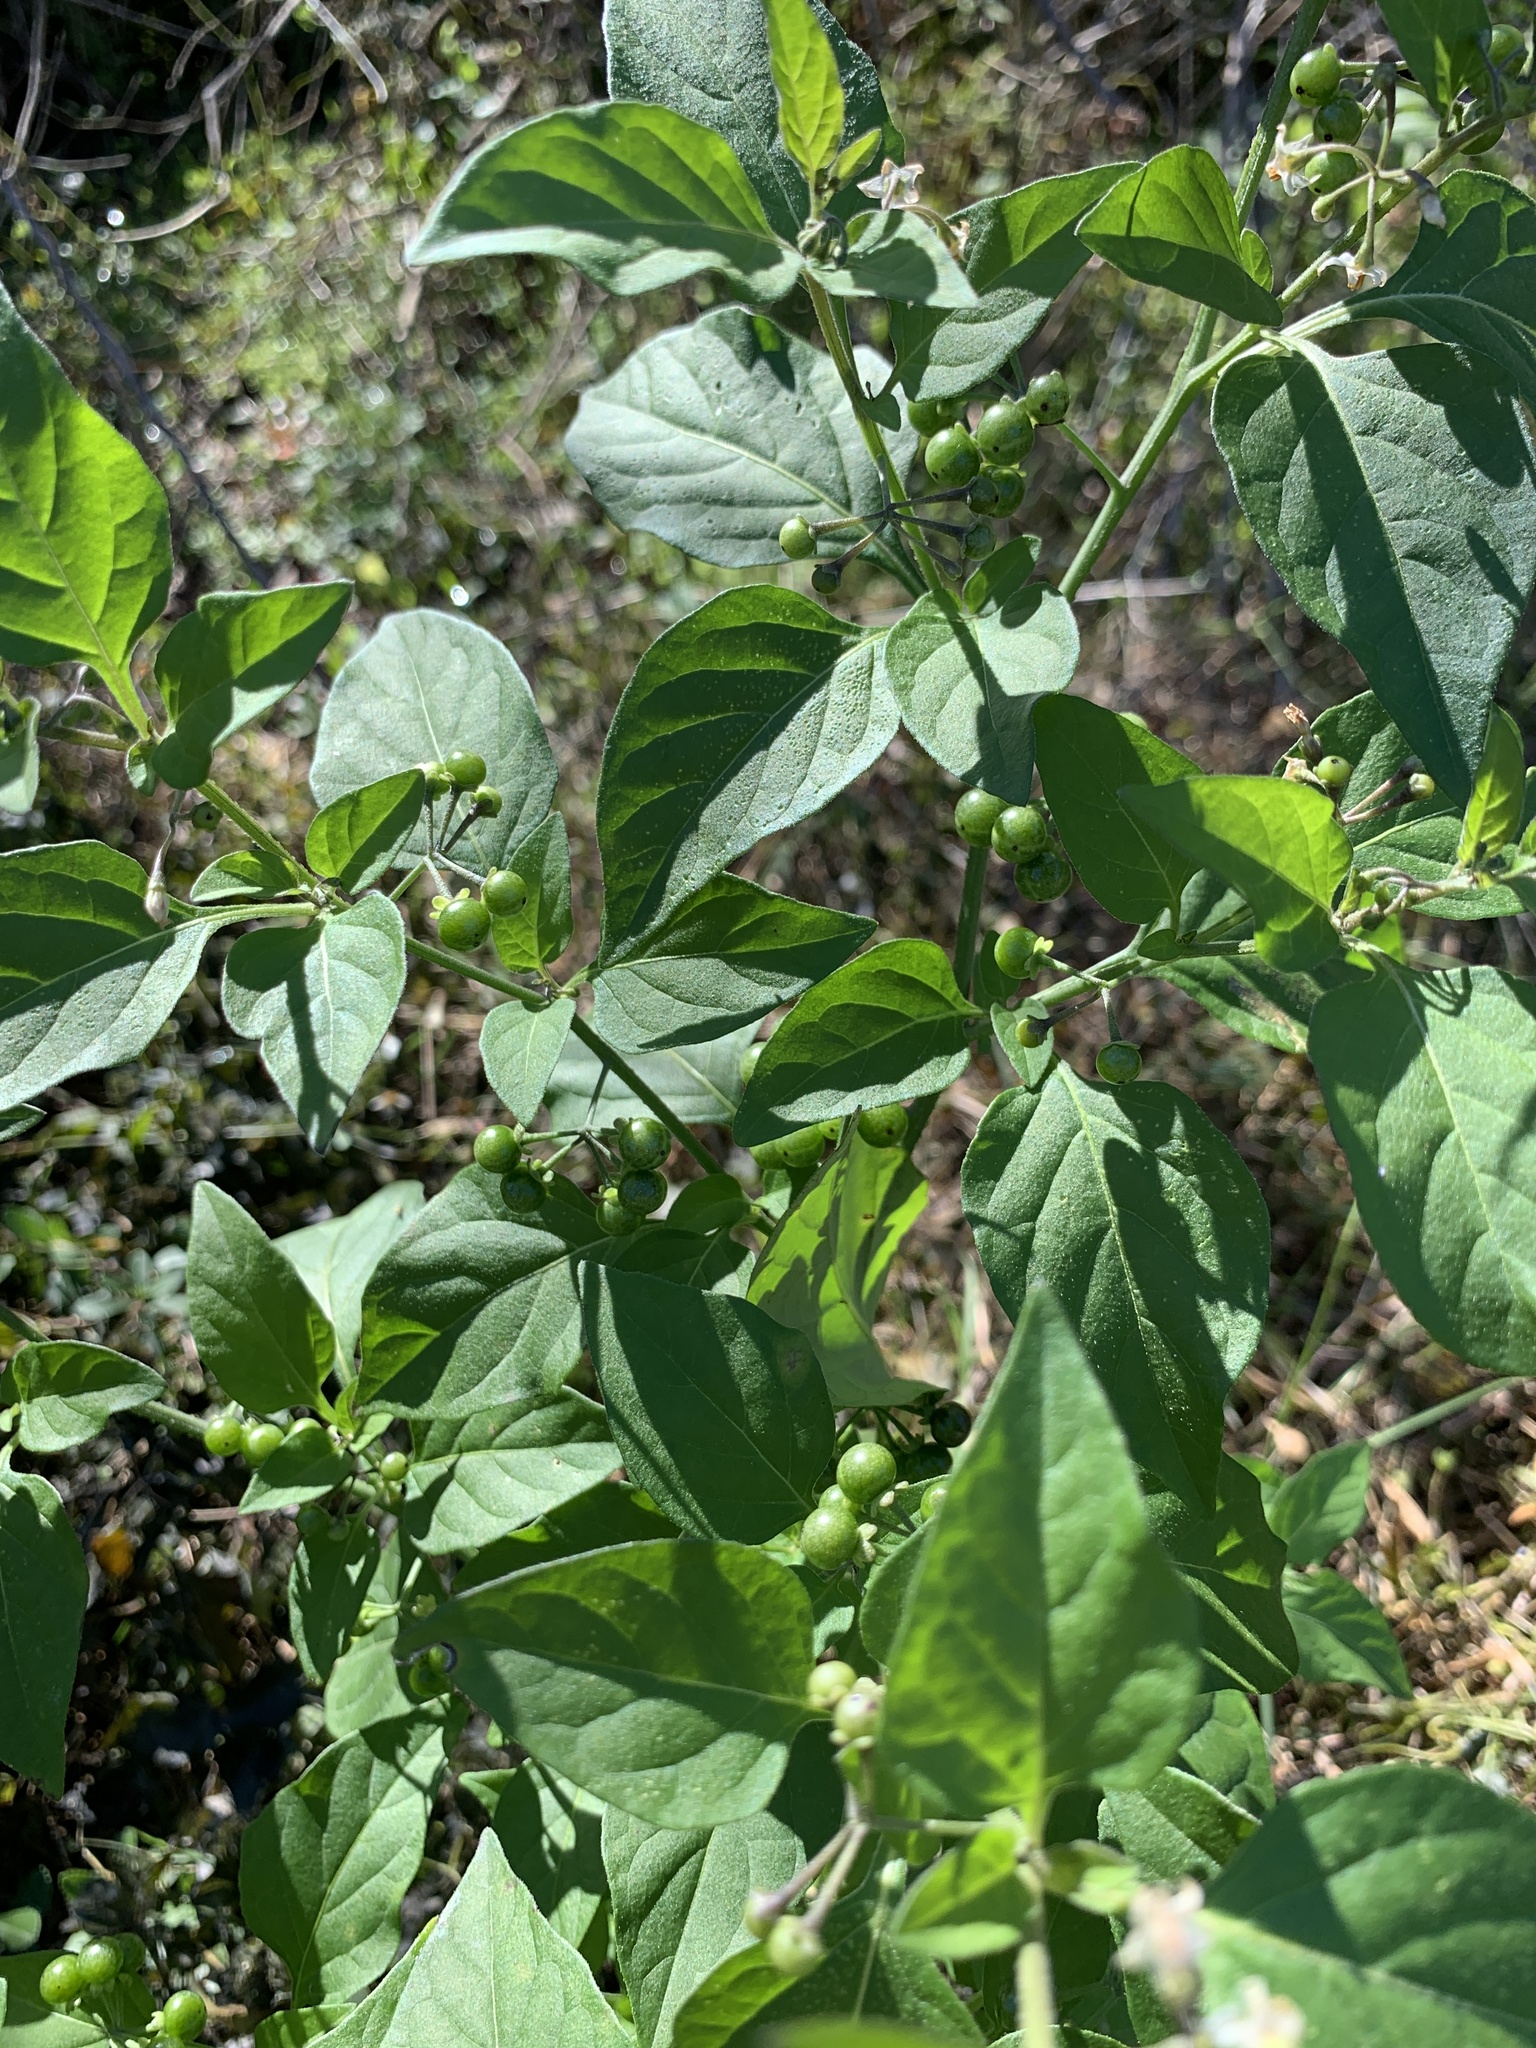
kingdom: Plantae
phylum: Tracheophyta
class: Magnoliopsida
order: Solanales
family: Solanaceae
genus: Solanum
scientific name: Solanum americanum
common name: American black nightshade
